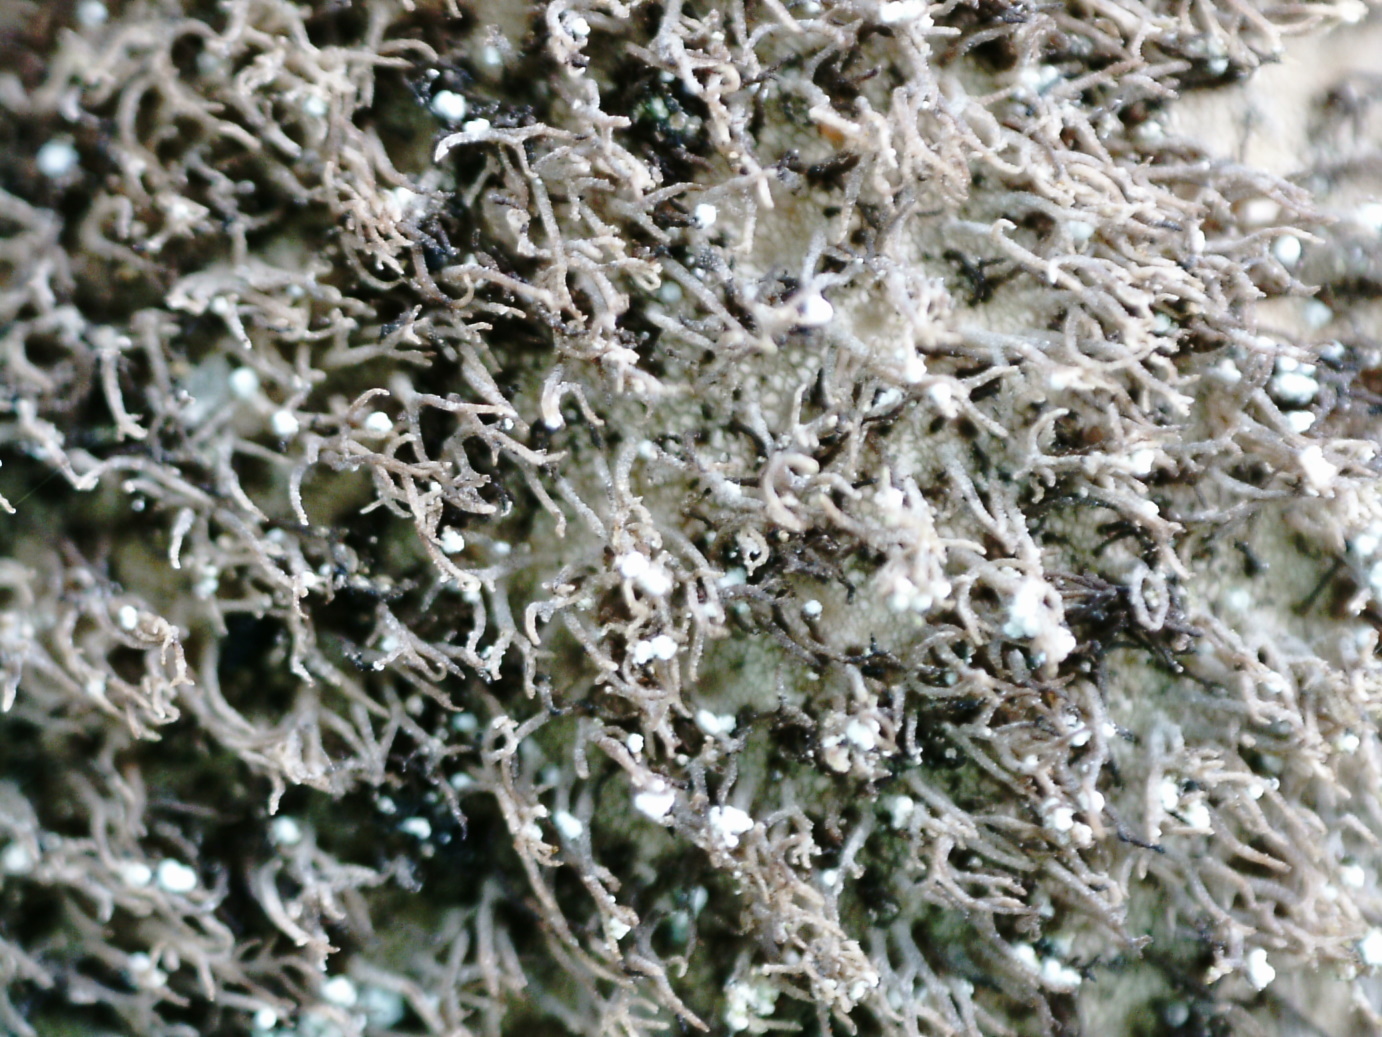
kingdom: Fungi
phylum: Ascomycota
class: Lecanoromycetes
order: Umbilicariales
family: Umbilicariaceae
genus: Umbilicaria
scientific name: Umbilicaria vellea
